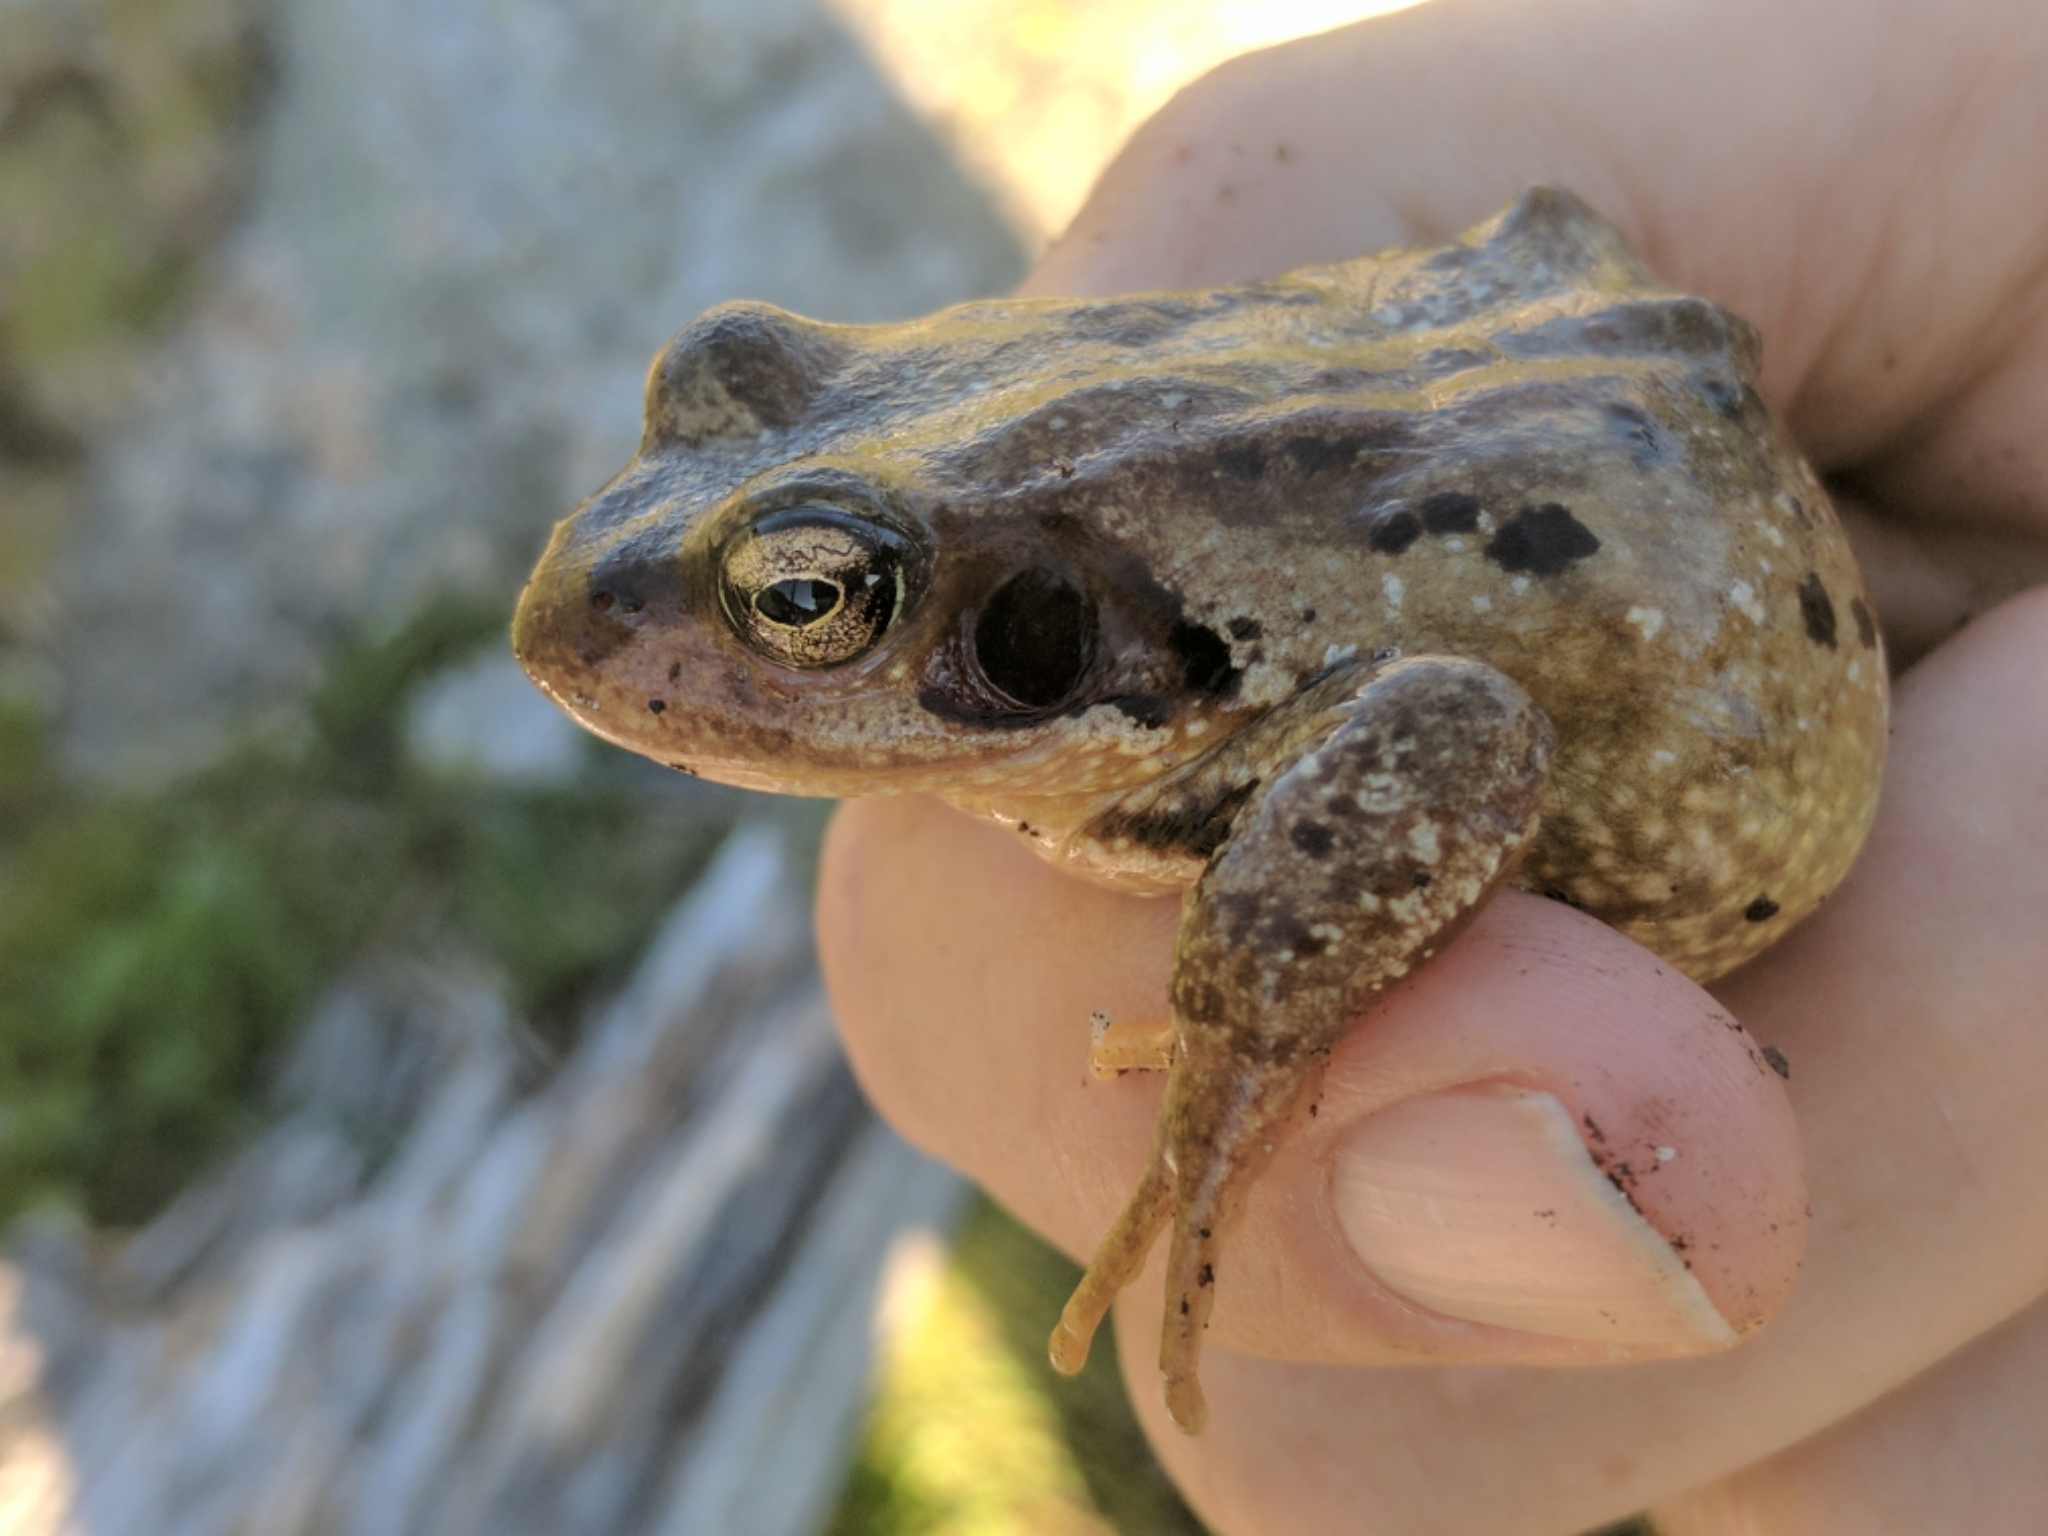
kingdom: Animalia
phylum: Chordata
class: Amphibia
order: Anura
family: Ranidae
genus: Rana
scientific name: Rana temporaria
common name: Common frog
